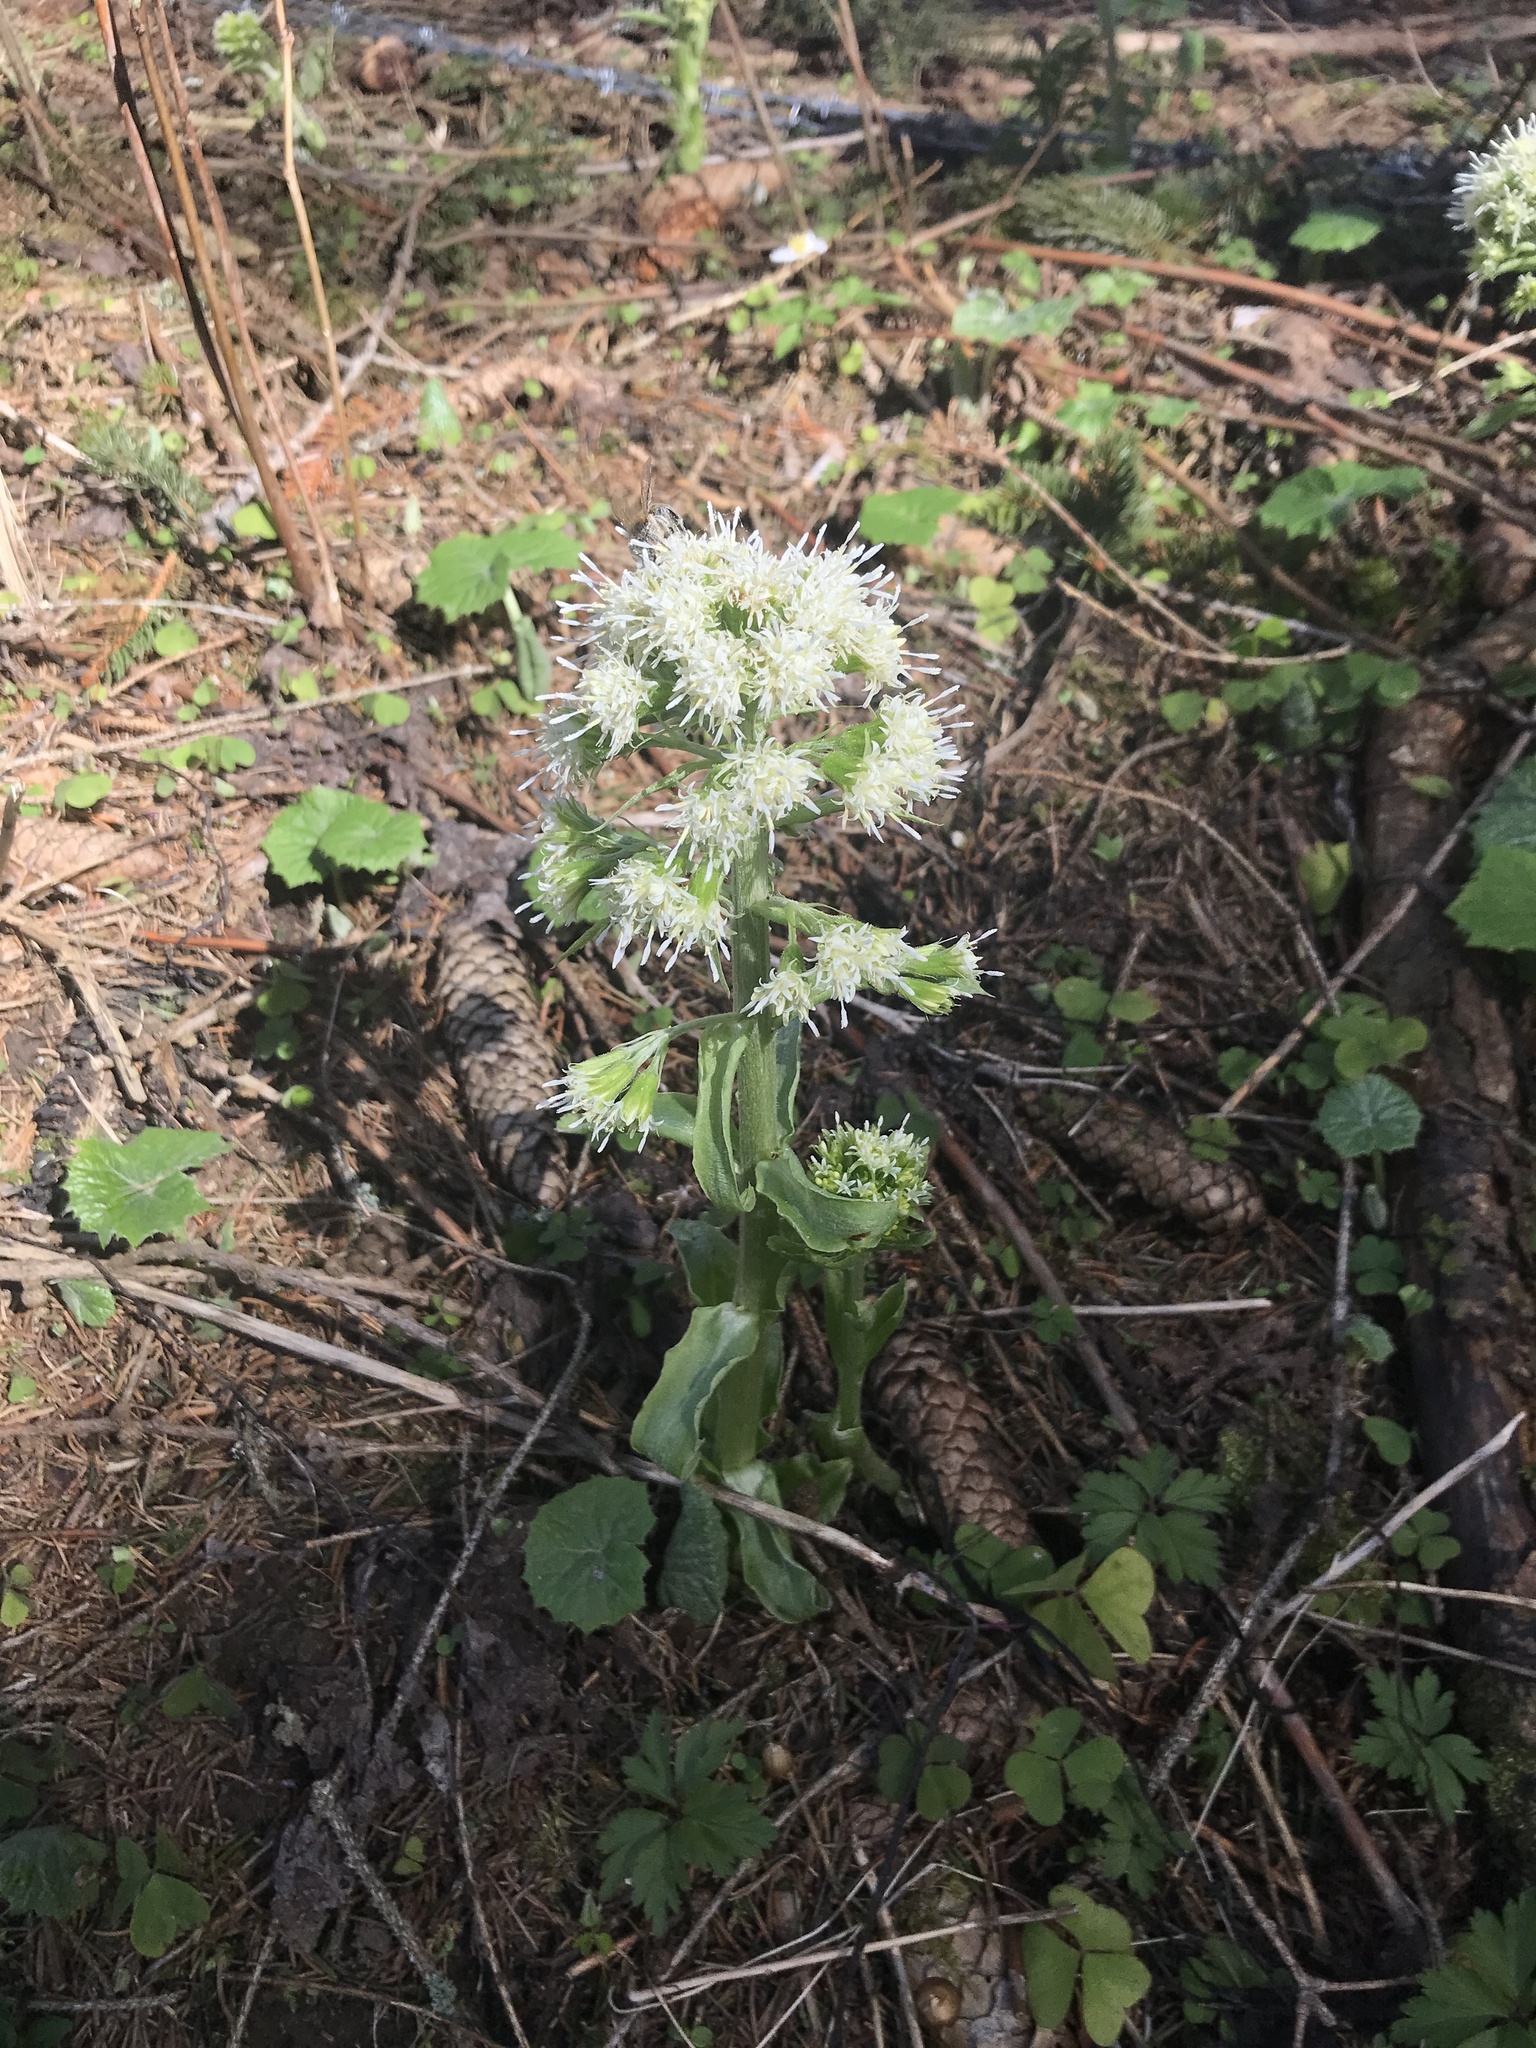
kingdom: Plantae
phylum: Tracheophyta
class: Magnoliopsida
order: Asterales
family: Asteraceae
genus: Petasites
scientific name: Petasites albus
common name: White butterbur
